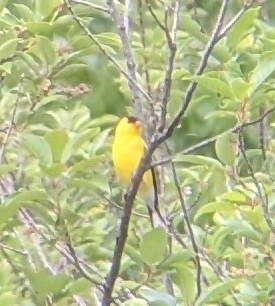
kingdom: Animalia
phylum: Chordata
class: Aves
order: Passeriformes
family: Fringillidae
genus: Spinus
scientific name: Spinus tristis
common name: American goldfinch
